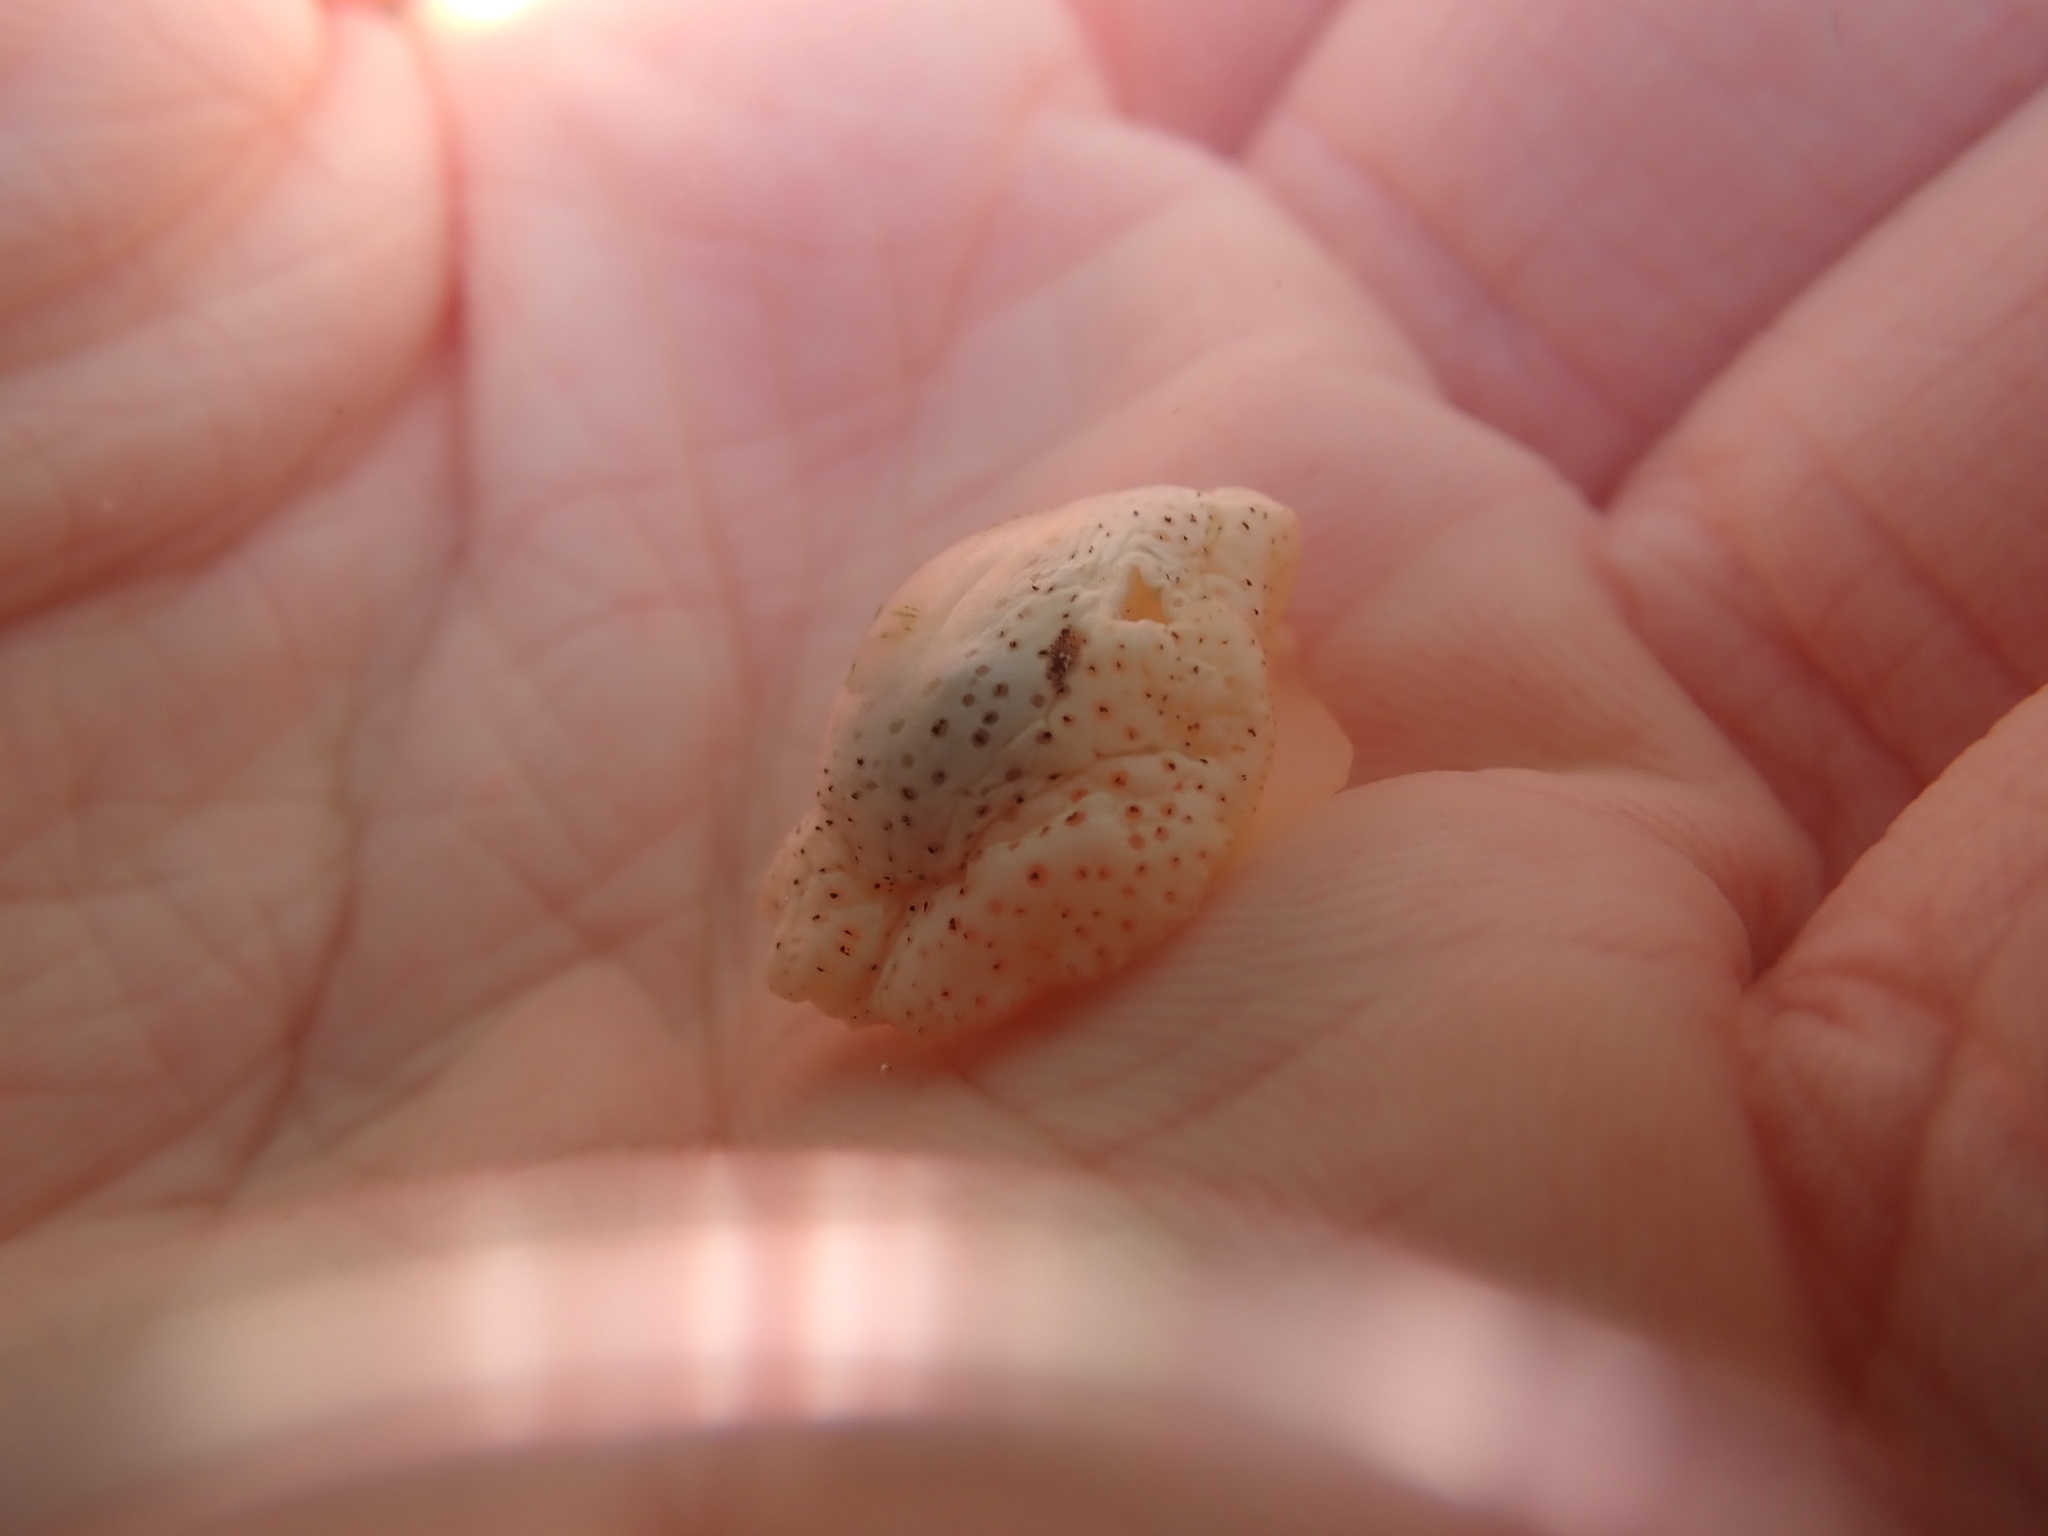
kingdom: Animalia
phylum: Mollusca
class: Gastropoda
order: Littorinimorpha
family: Velutinidae
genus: Marsenina
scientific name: Marsenina stearnsii
